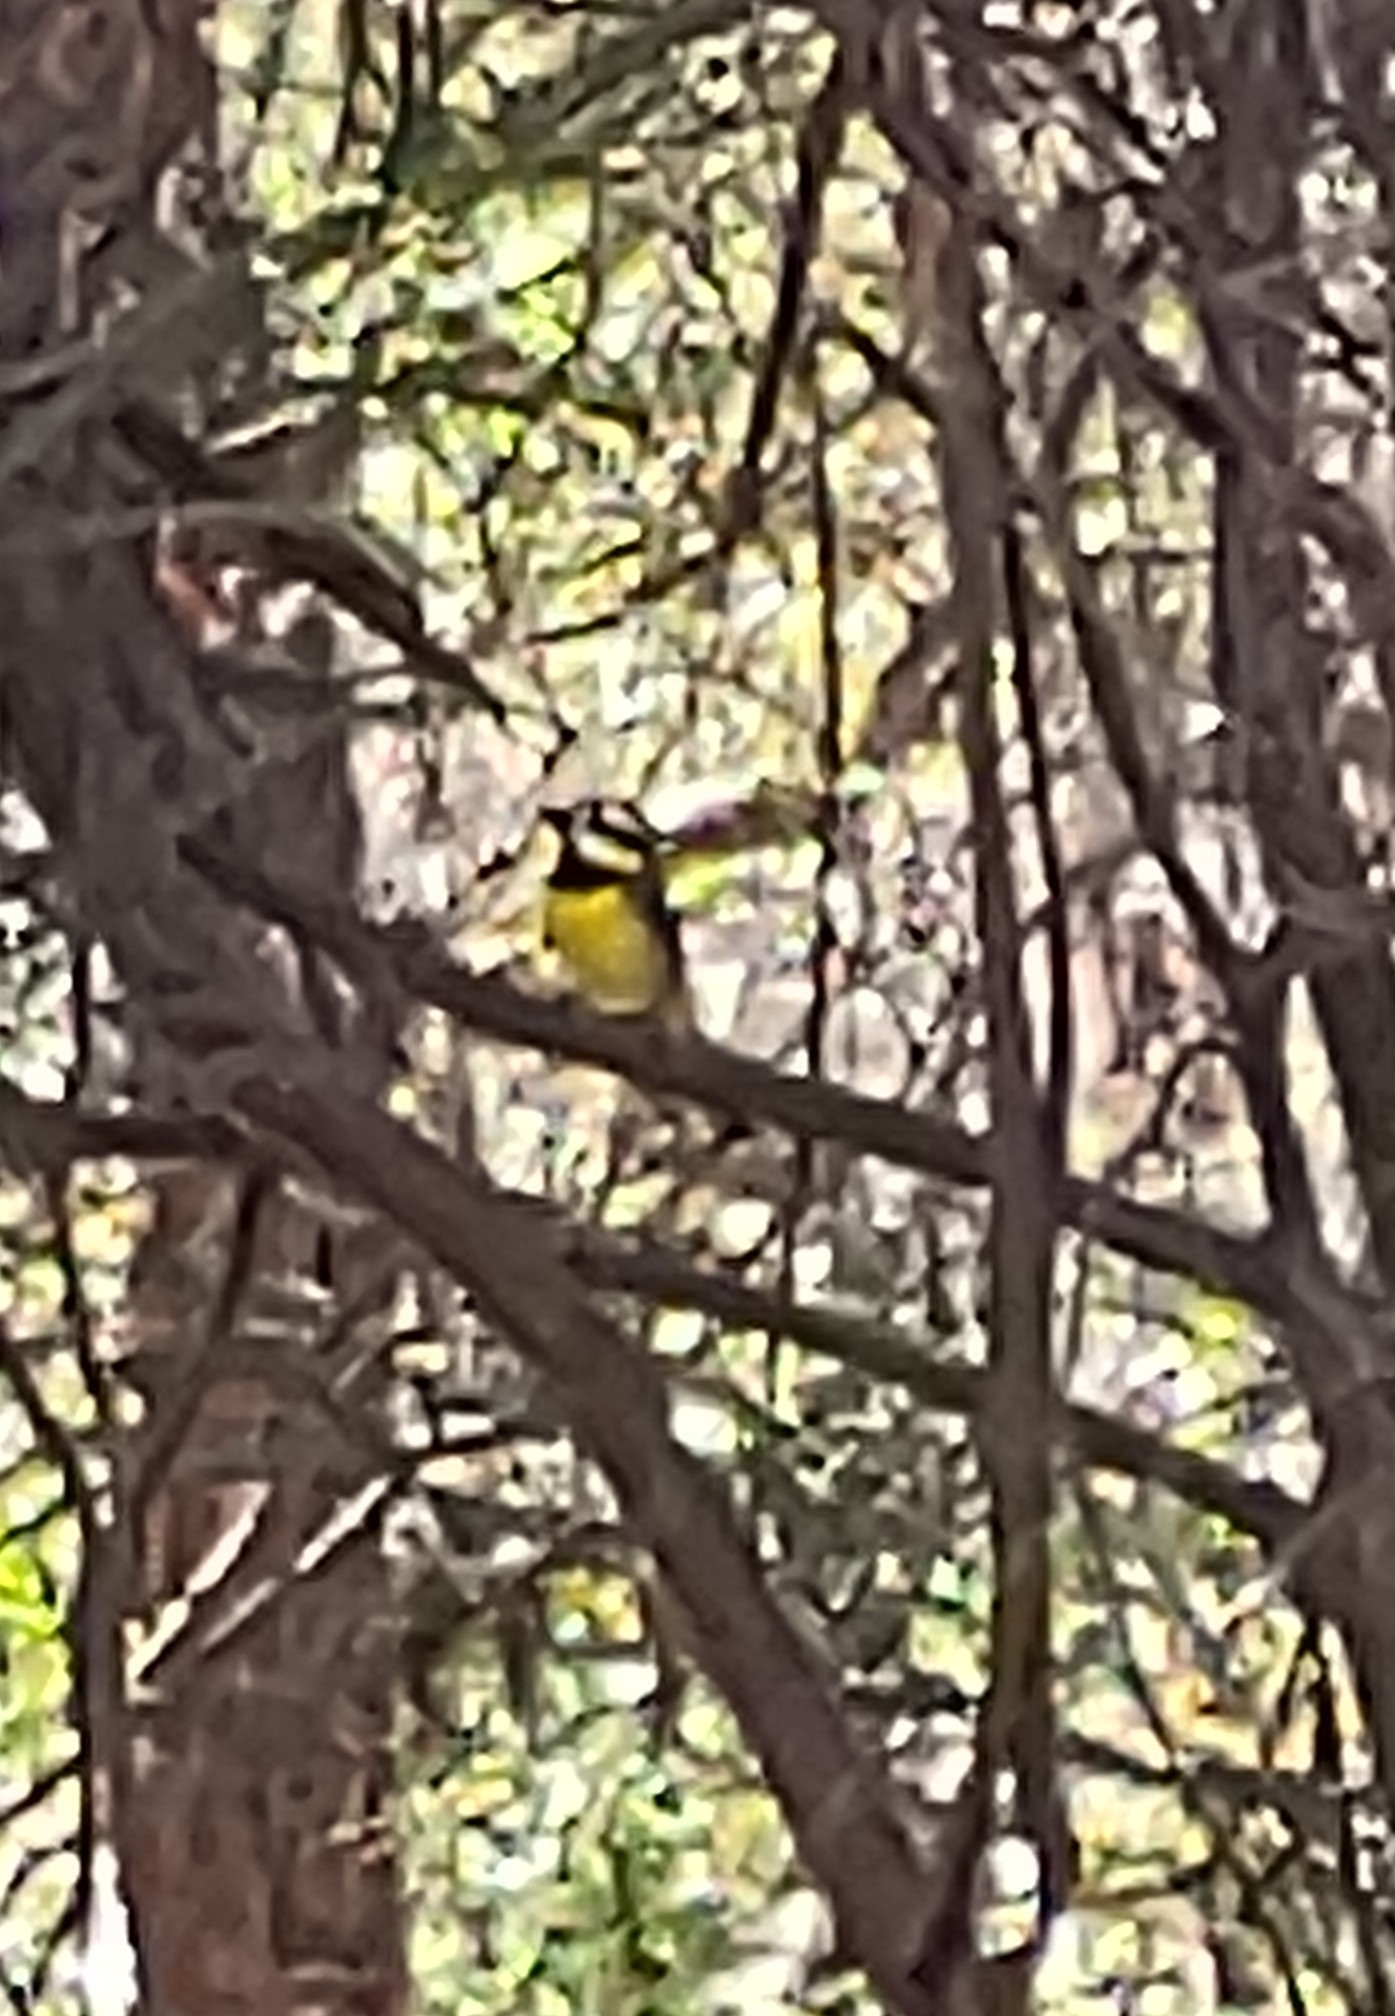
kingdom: Animalia
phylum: Chordata
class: Aves
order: Passeriformes
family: Pachycephalidae
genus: Falcunculus
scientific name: Falcunculus frontatus
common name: Crested shriketit
